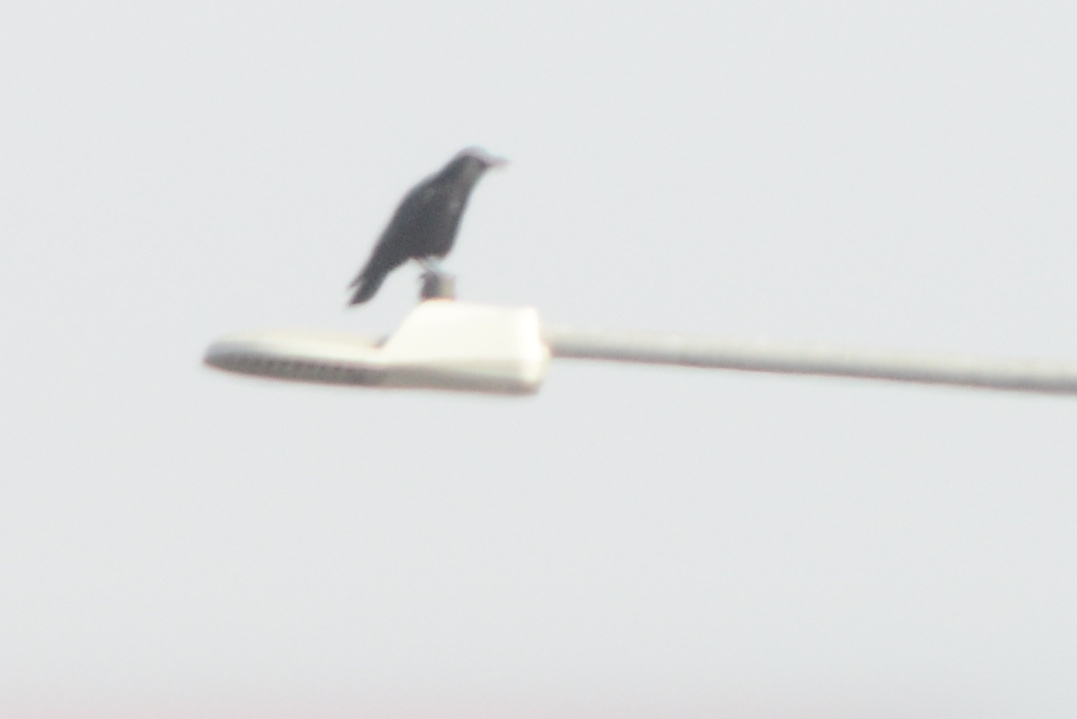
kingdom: Animalia
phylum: Chordata
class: Aves
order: Passeriformes
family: Corvidae
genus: Corvus
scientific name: Corvus brachyrhynchos
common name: American crow
